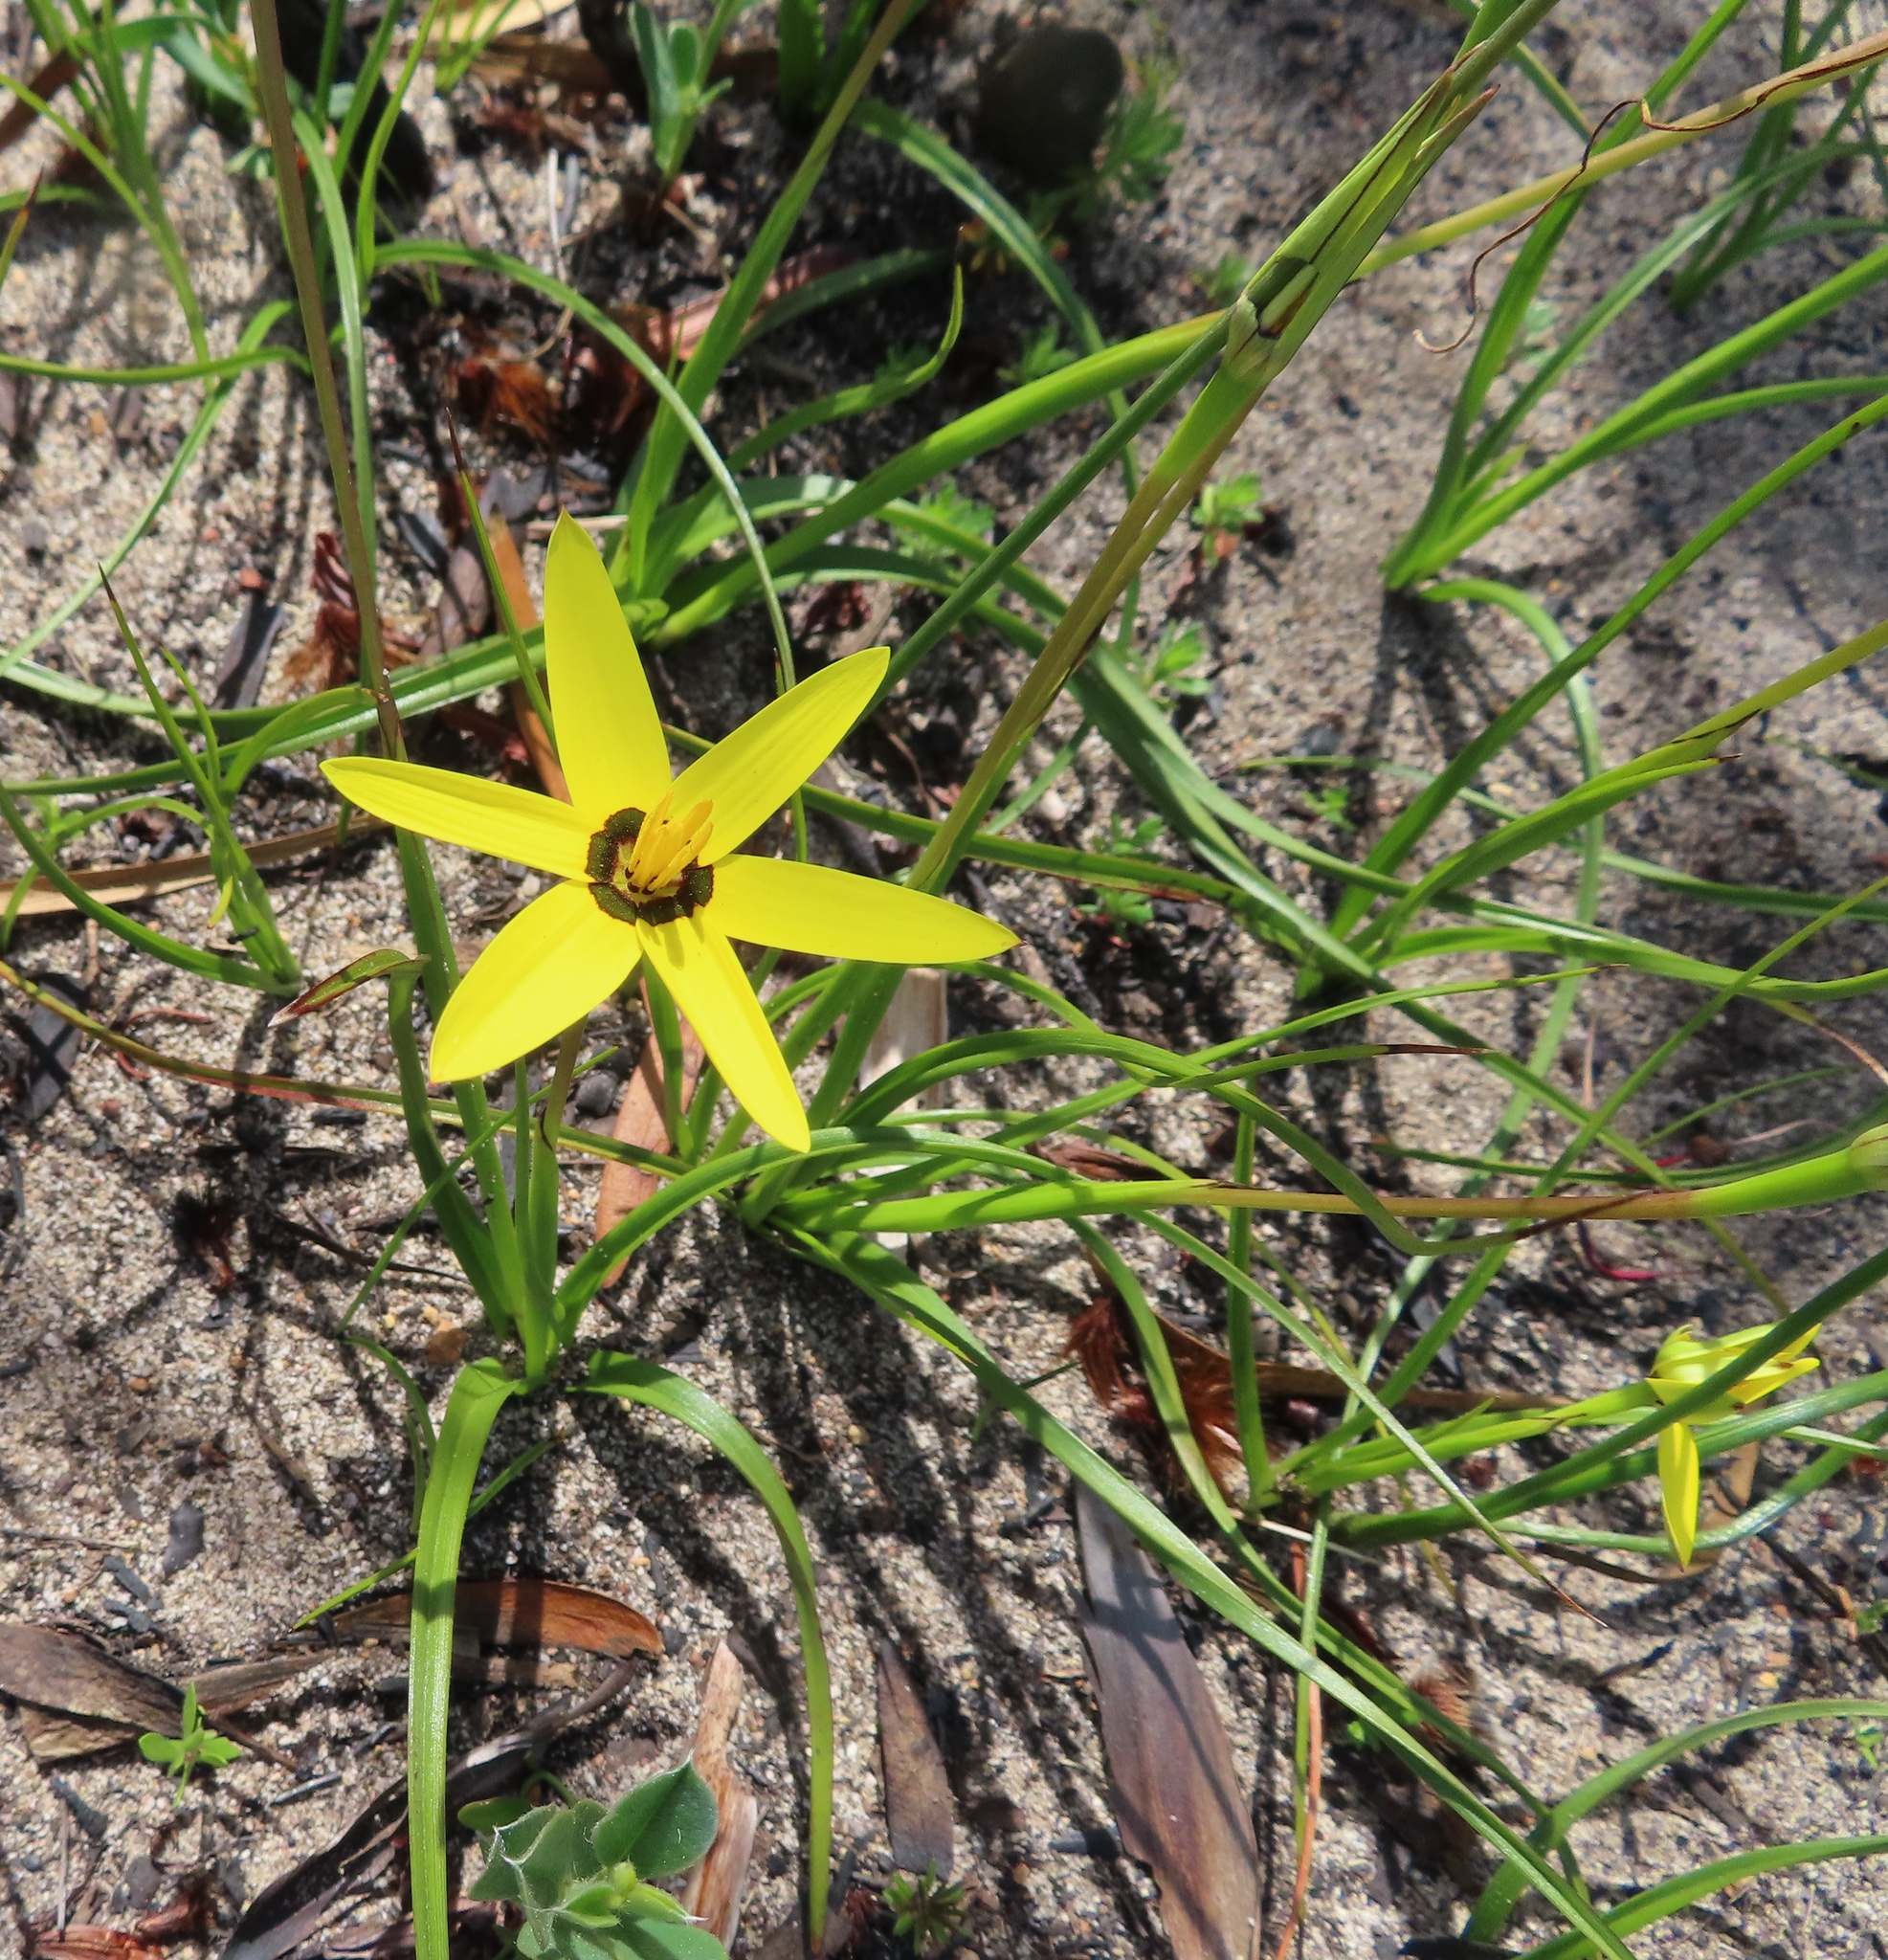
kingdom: Plantae
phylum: Tracheophyta
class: Liliopsida
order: Asparagales
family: Hypoxidaceae
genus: Pauridia
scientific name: Pauridia capensis
